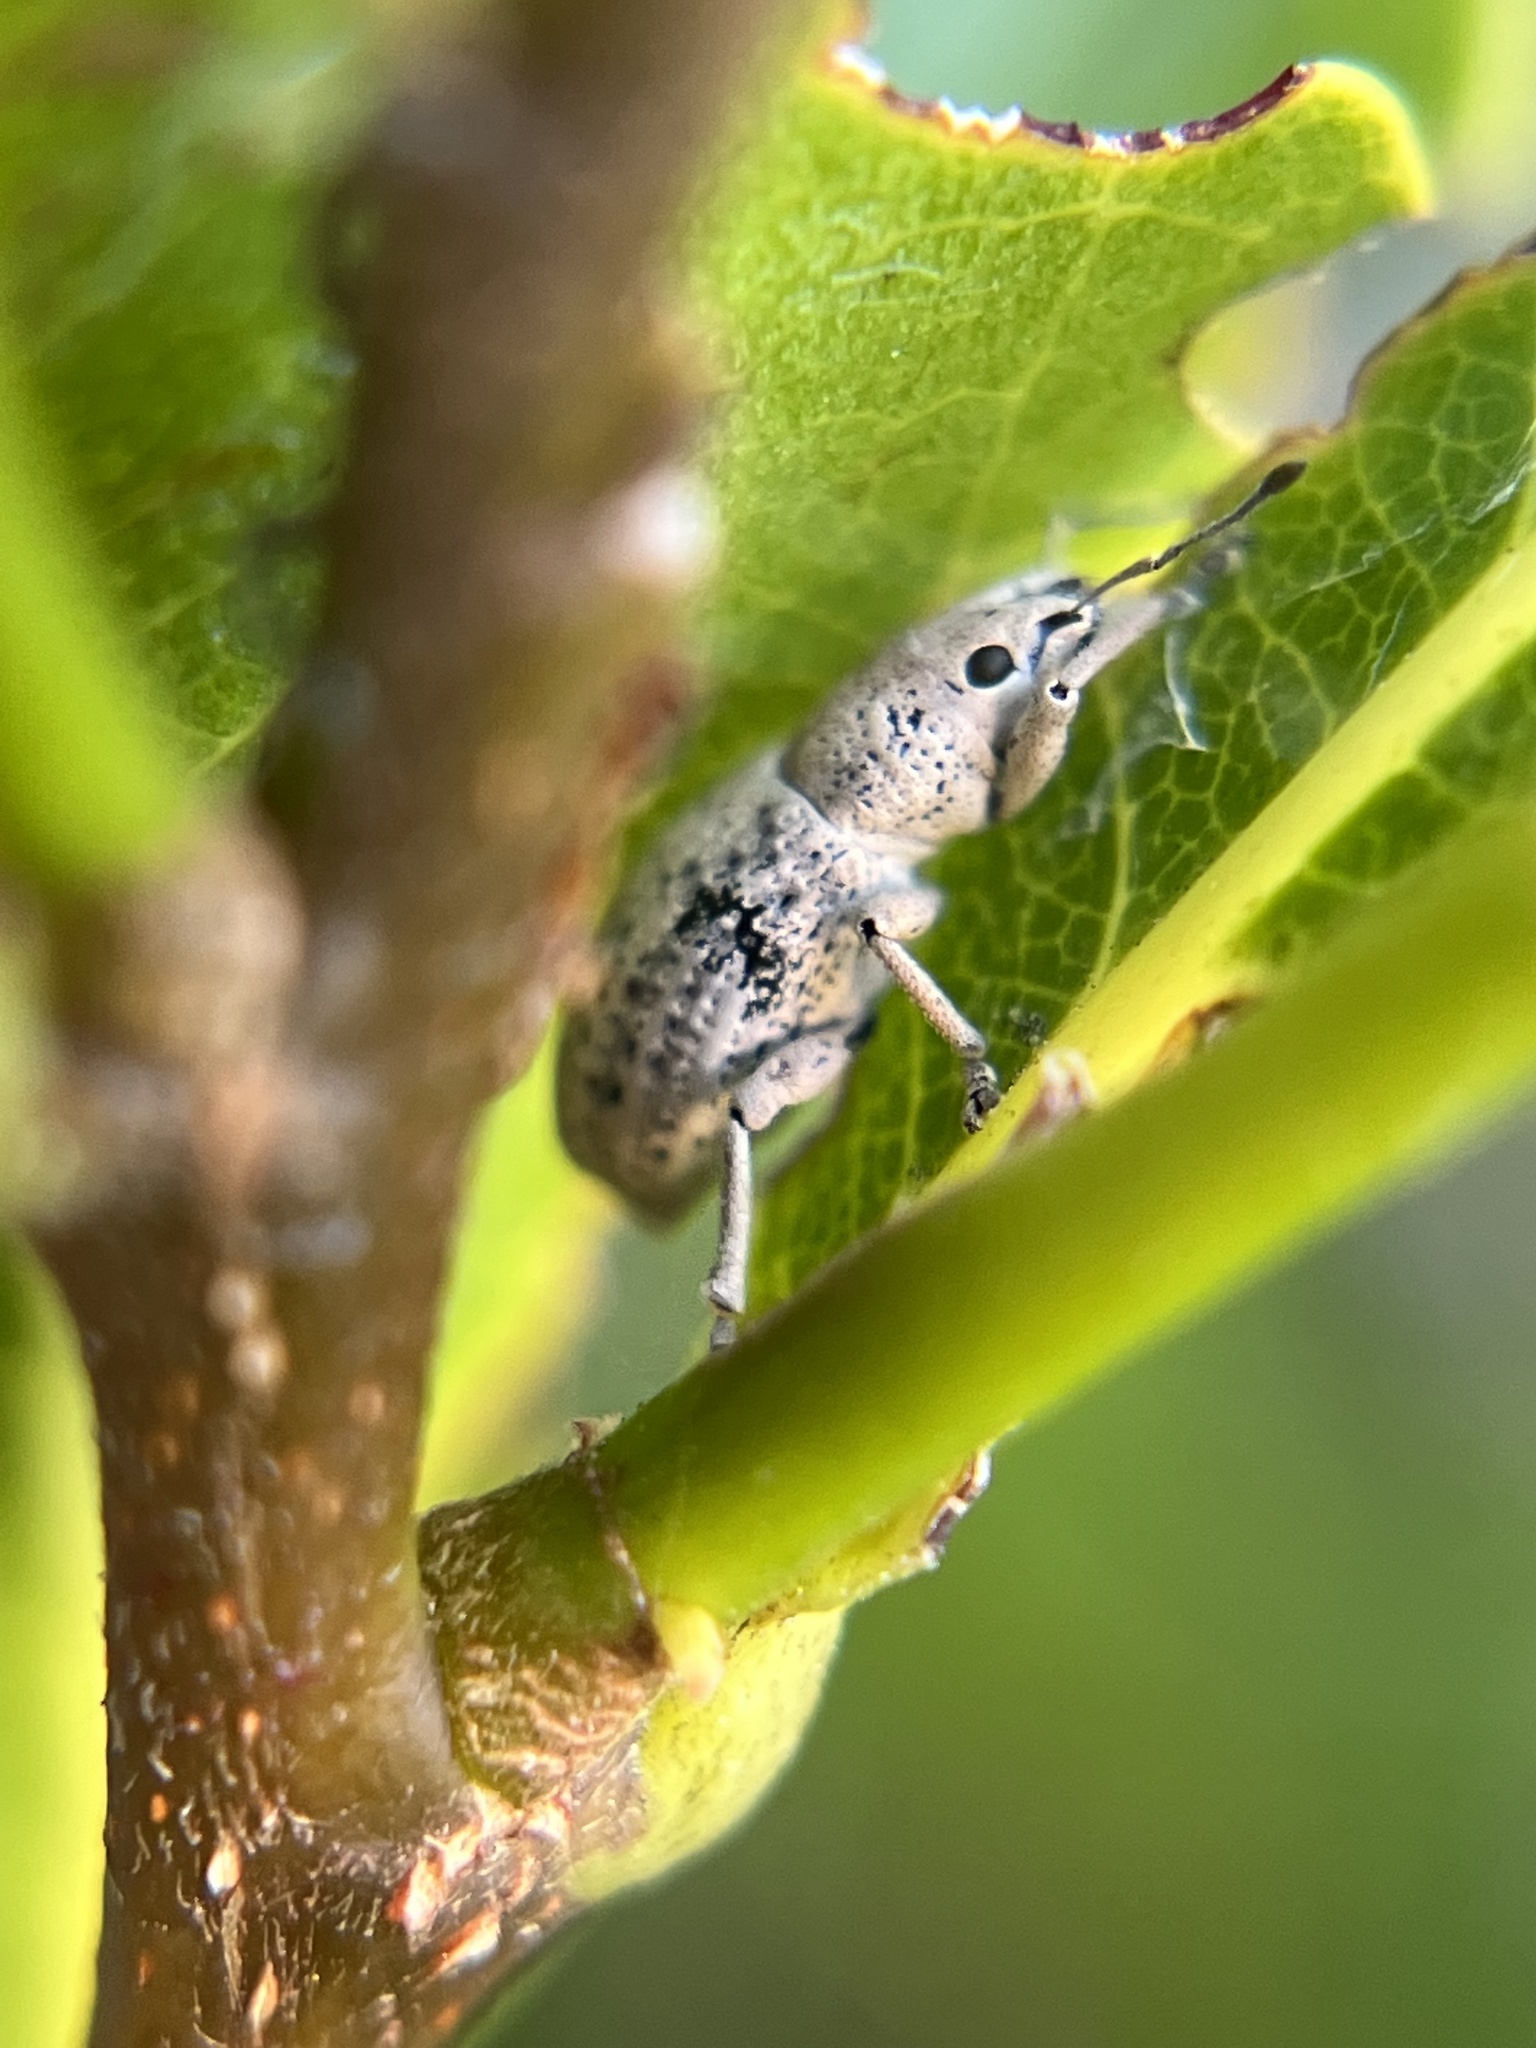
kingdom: Animalia
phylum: Arthropoda
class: Insecta
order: Coleoptera
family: Curculionidae
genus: Artipus
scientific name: Artipus floridanus
